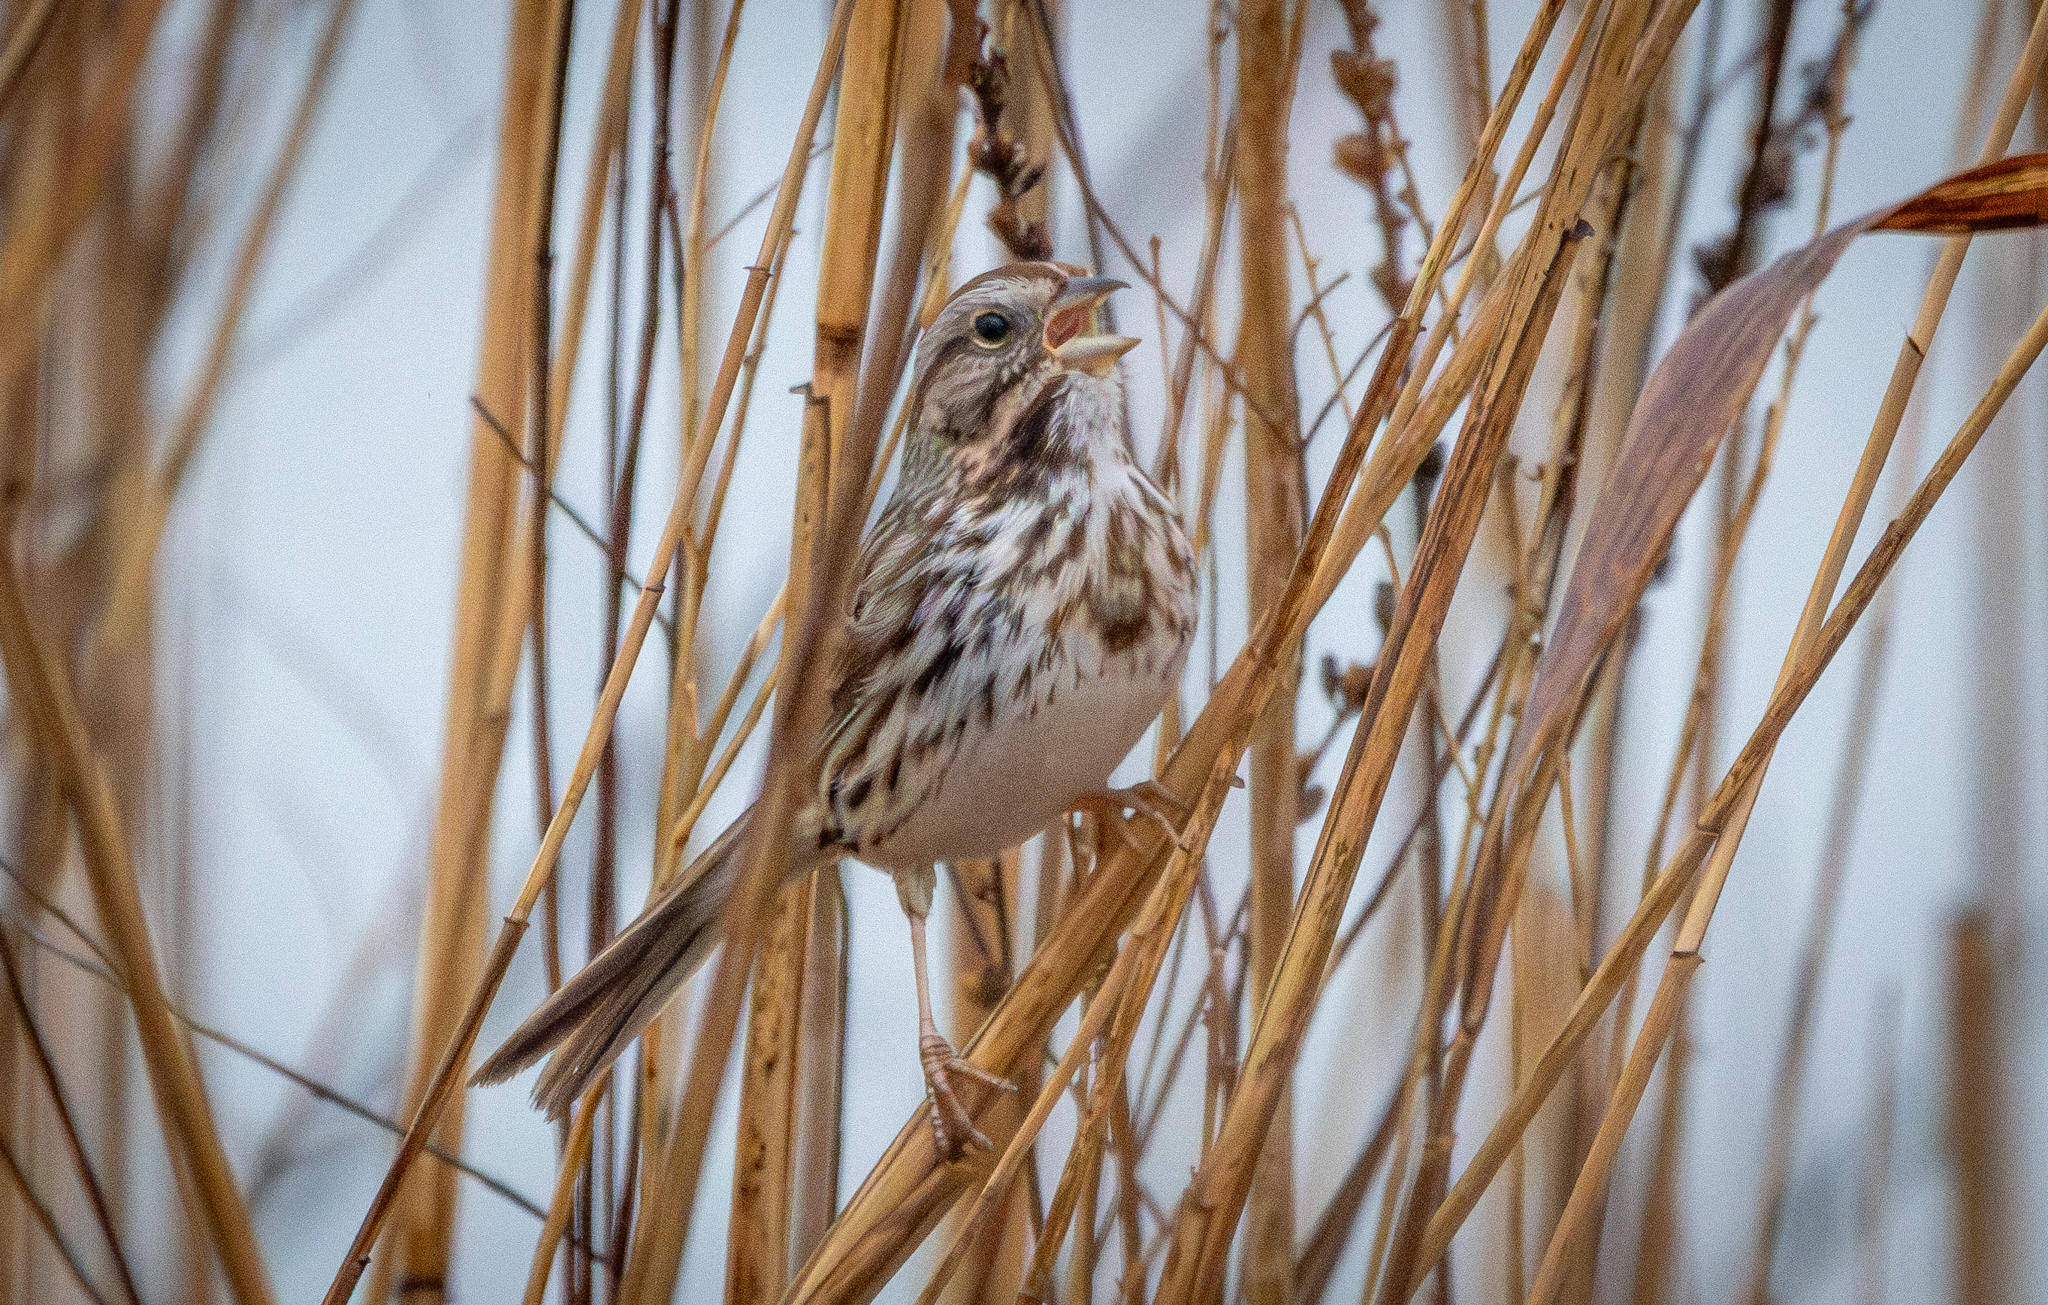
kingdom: Animalia
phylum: Chordata
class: Aves
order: Passeriformes
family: Passerellidae
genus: Melospiza
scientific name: Melospiza melodia
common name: Song sparrow
